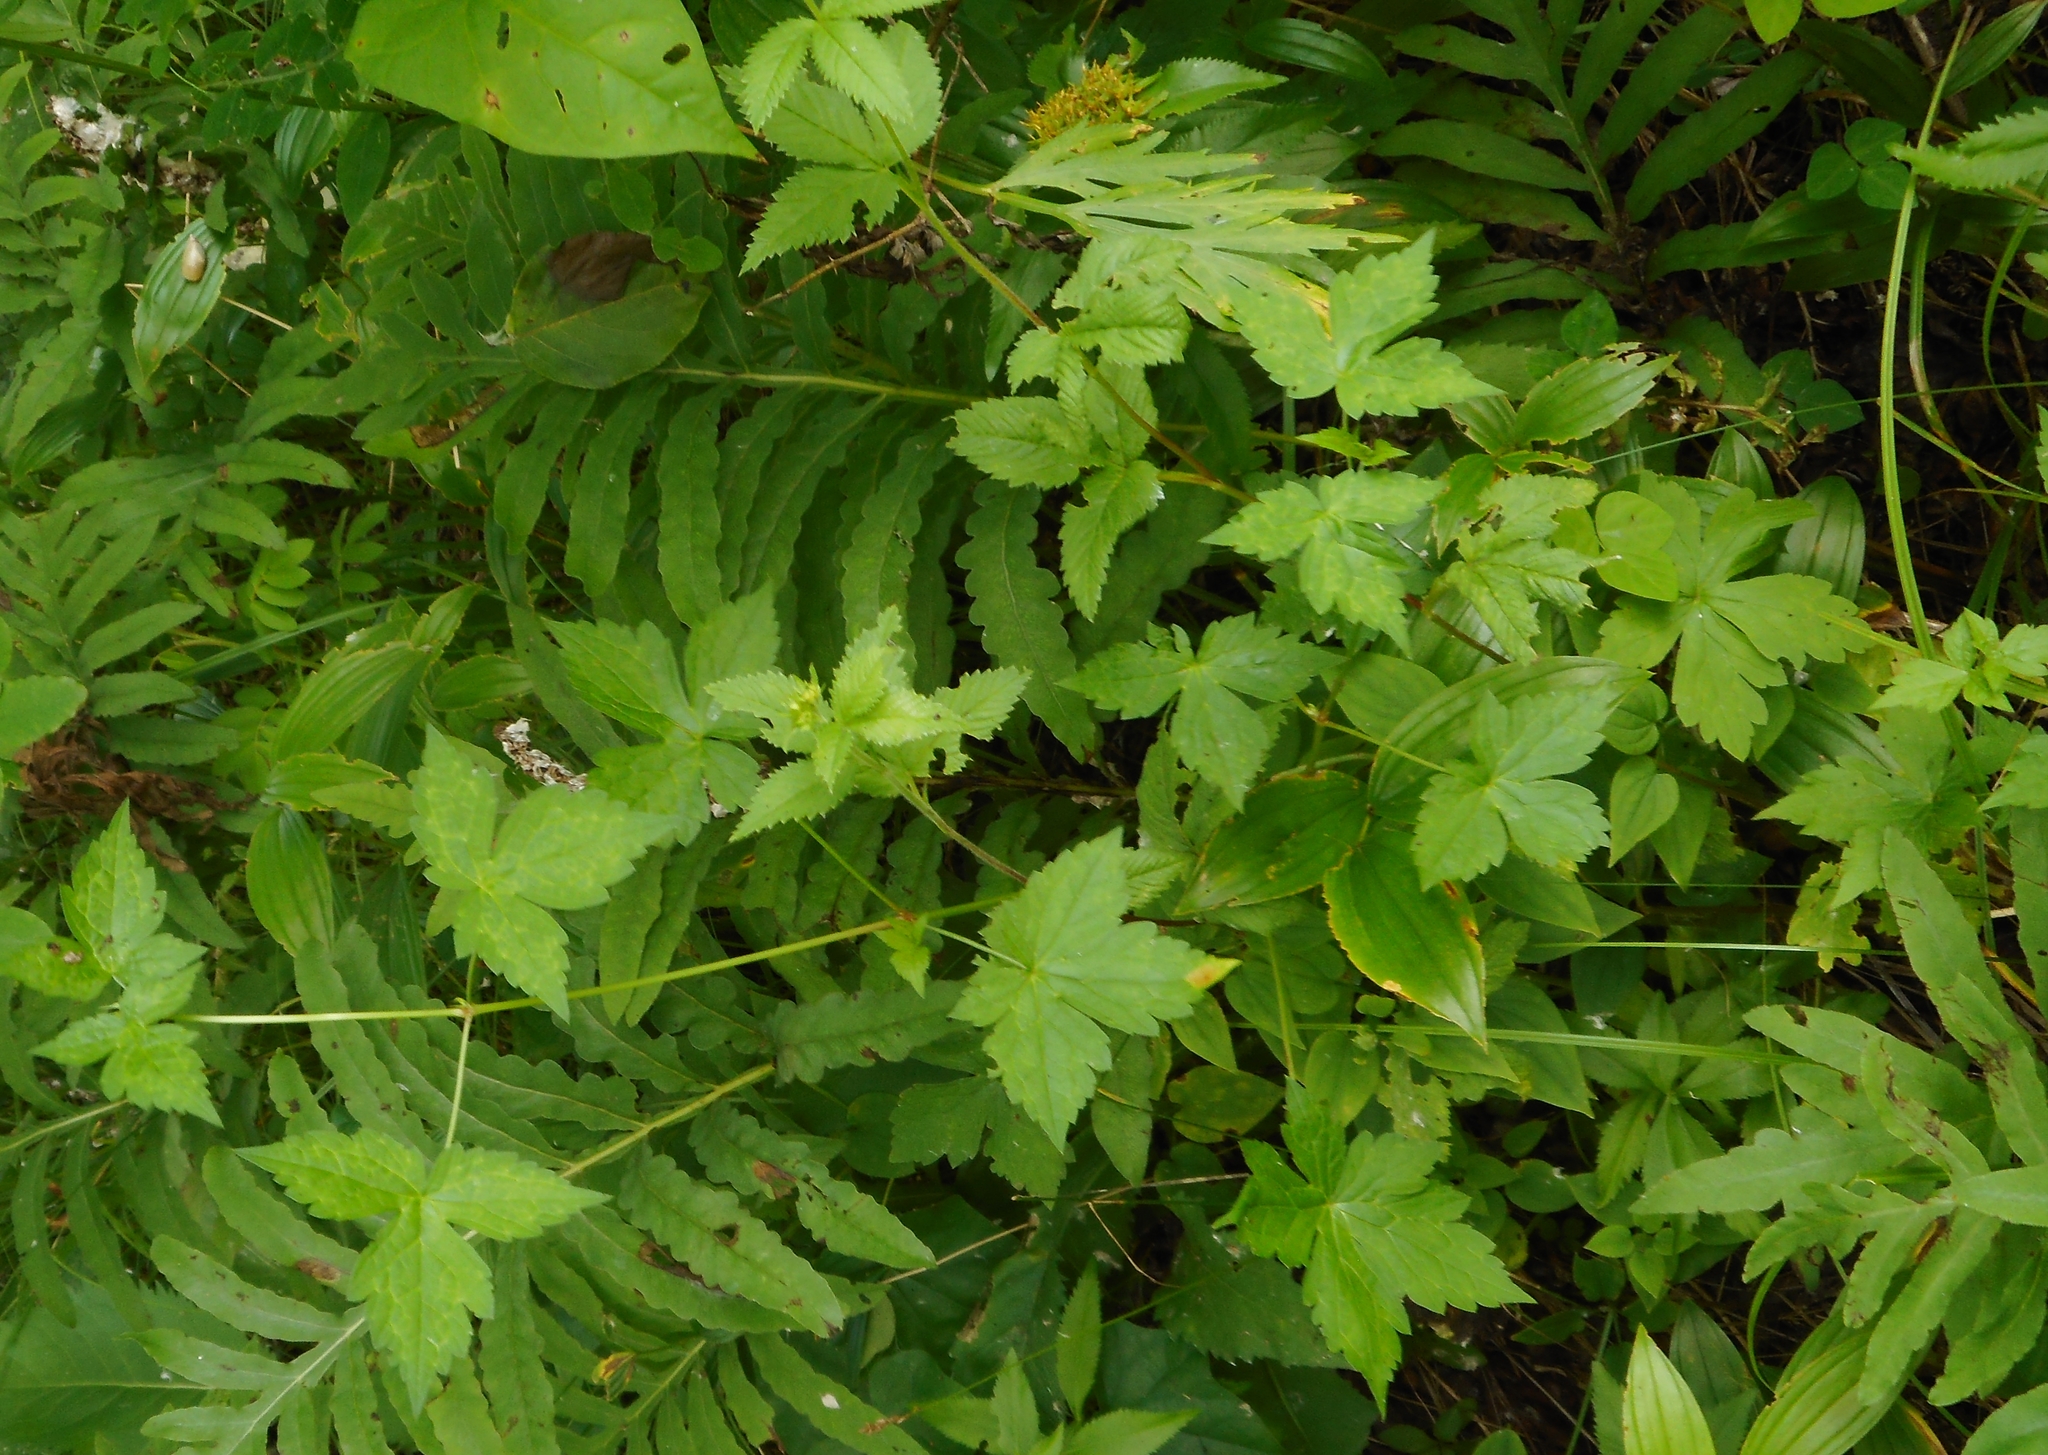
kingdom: Plantae
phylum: Tracheophyta
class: Magnoliopsida
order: Geraniales
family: Geraniaceae
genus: Geranium
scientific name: Geranium wilfordii
